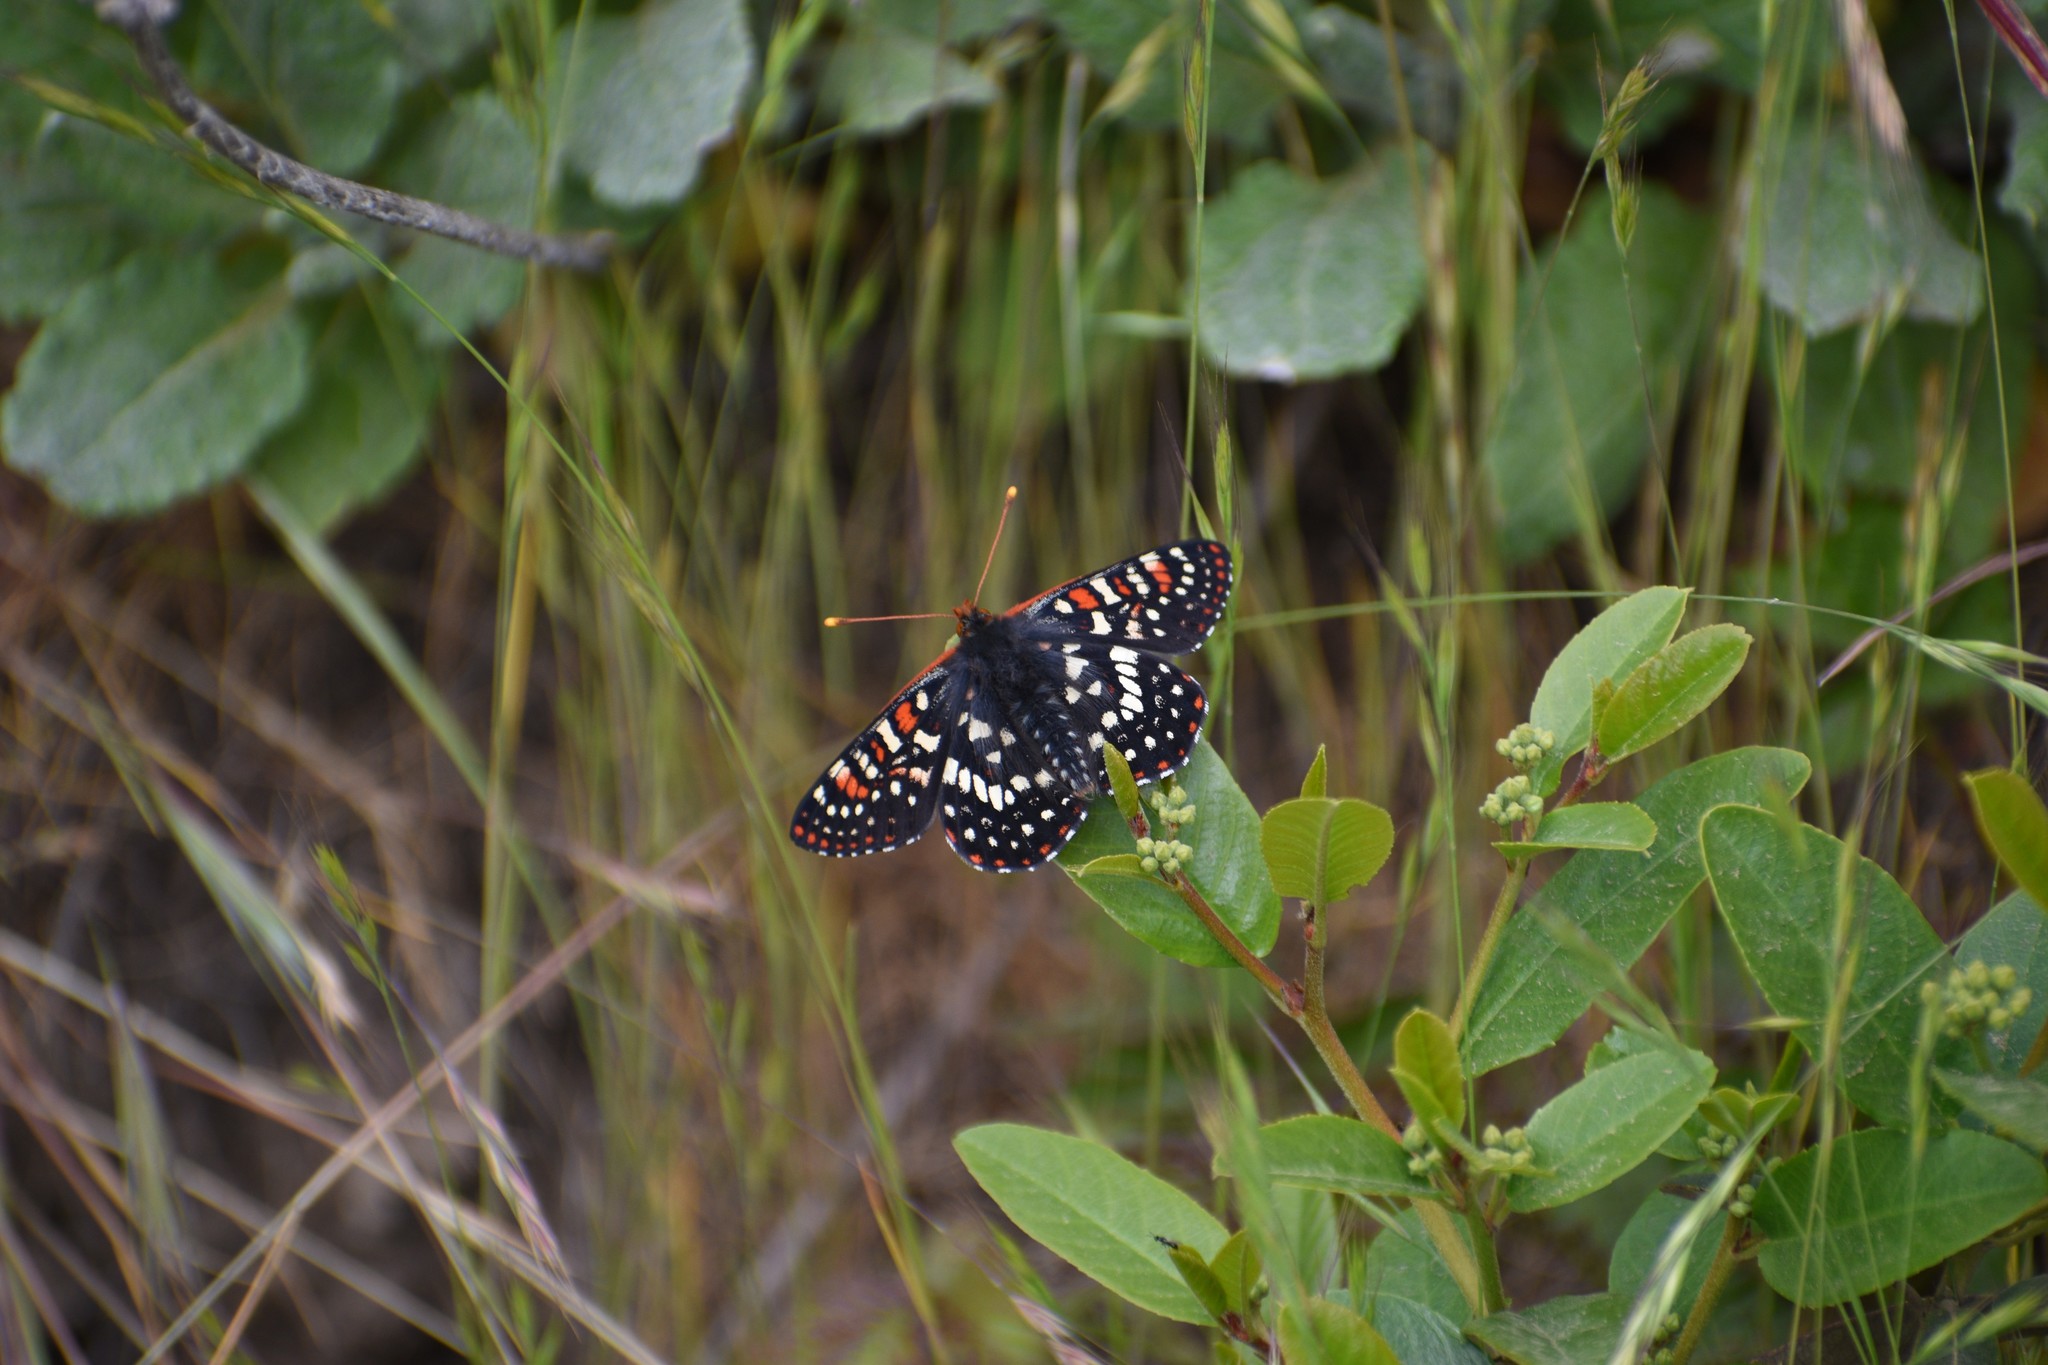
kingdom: Animalia
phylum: Arthropoda
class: Insecta
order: Lepidoptera
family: Nymphalidae
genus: Occidryas
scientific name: Occidryas chalcedona
